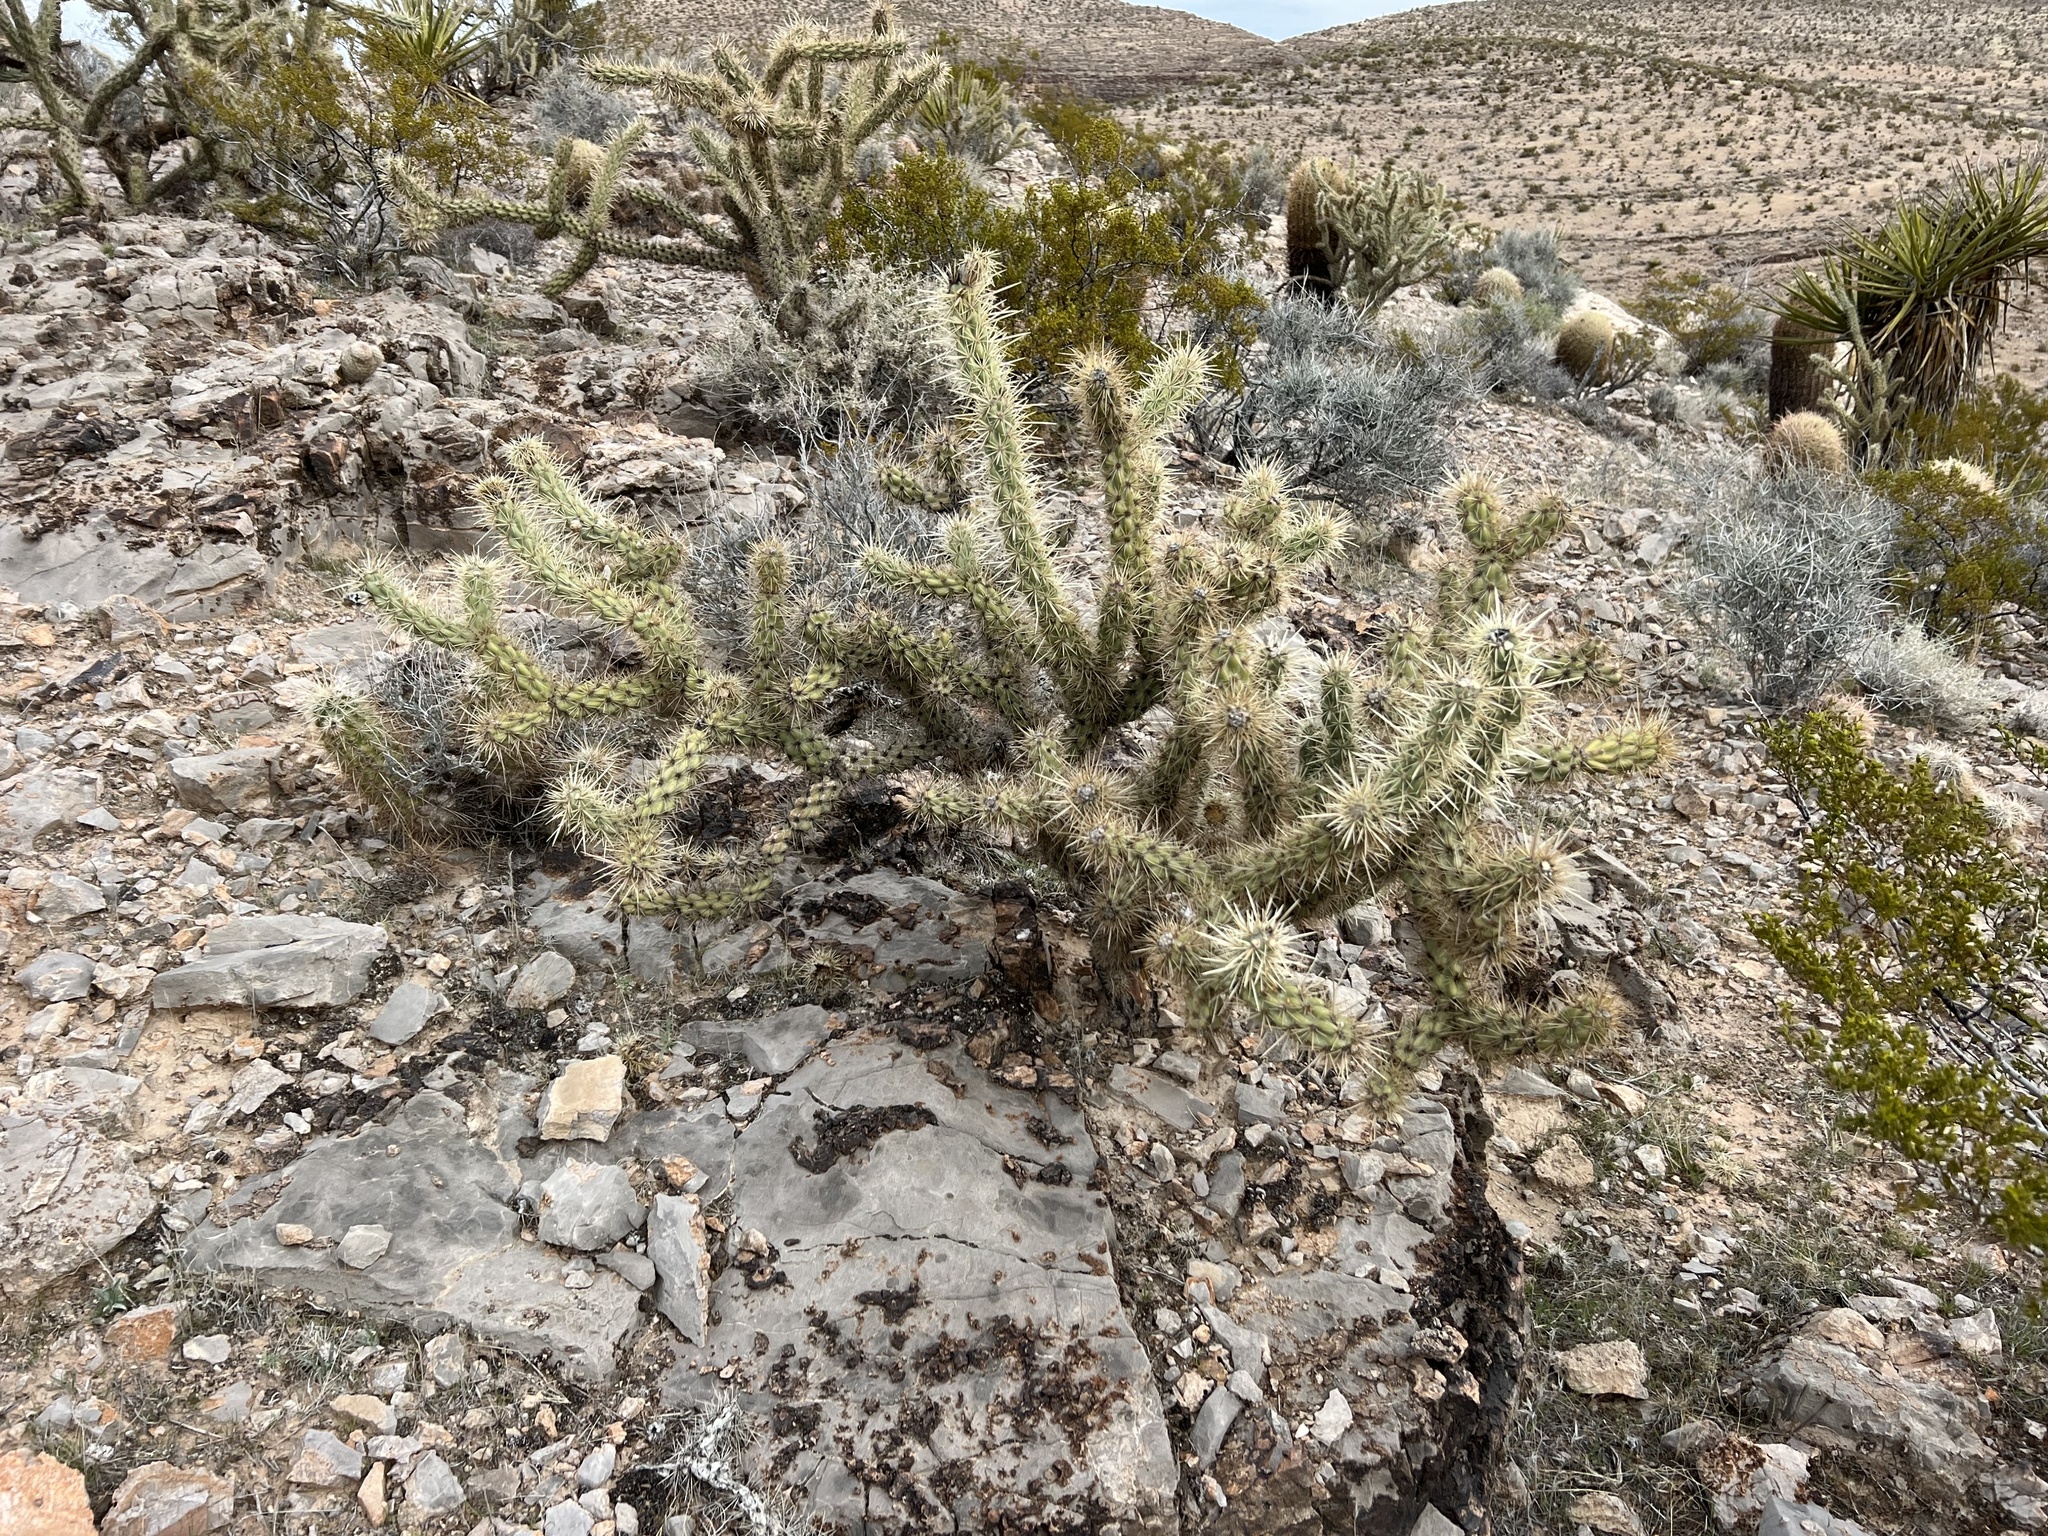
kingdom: Plantae
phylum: Tracheophyta
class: Magnoliopsida
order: Caryophyllales
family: Cactaceae
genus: Cylindropuntia
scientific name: Cylindropuntia acanthocarpa
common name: Buckhorn cholla
